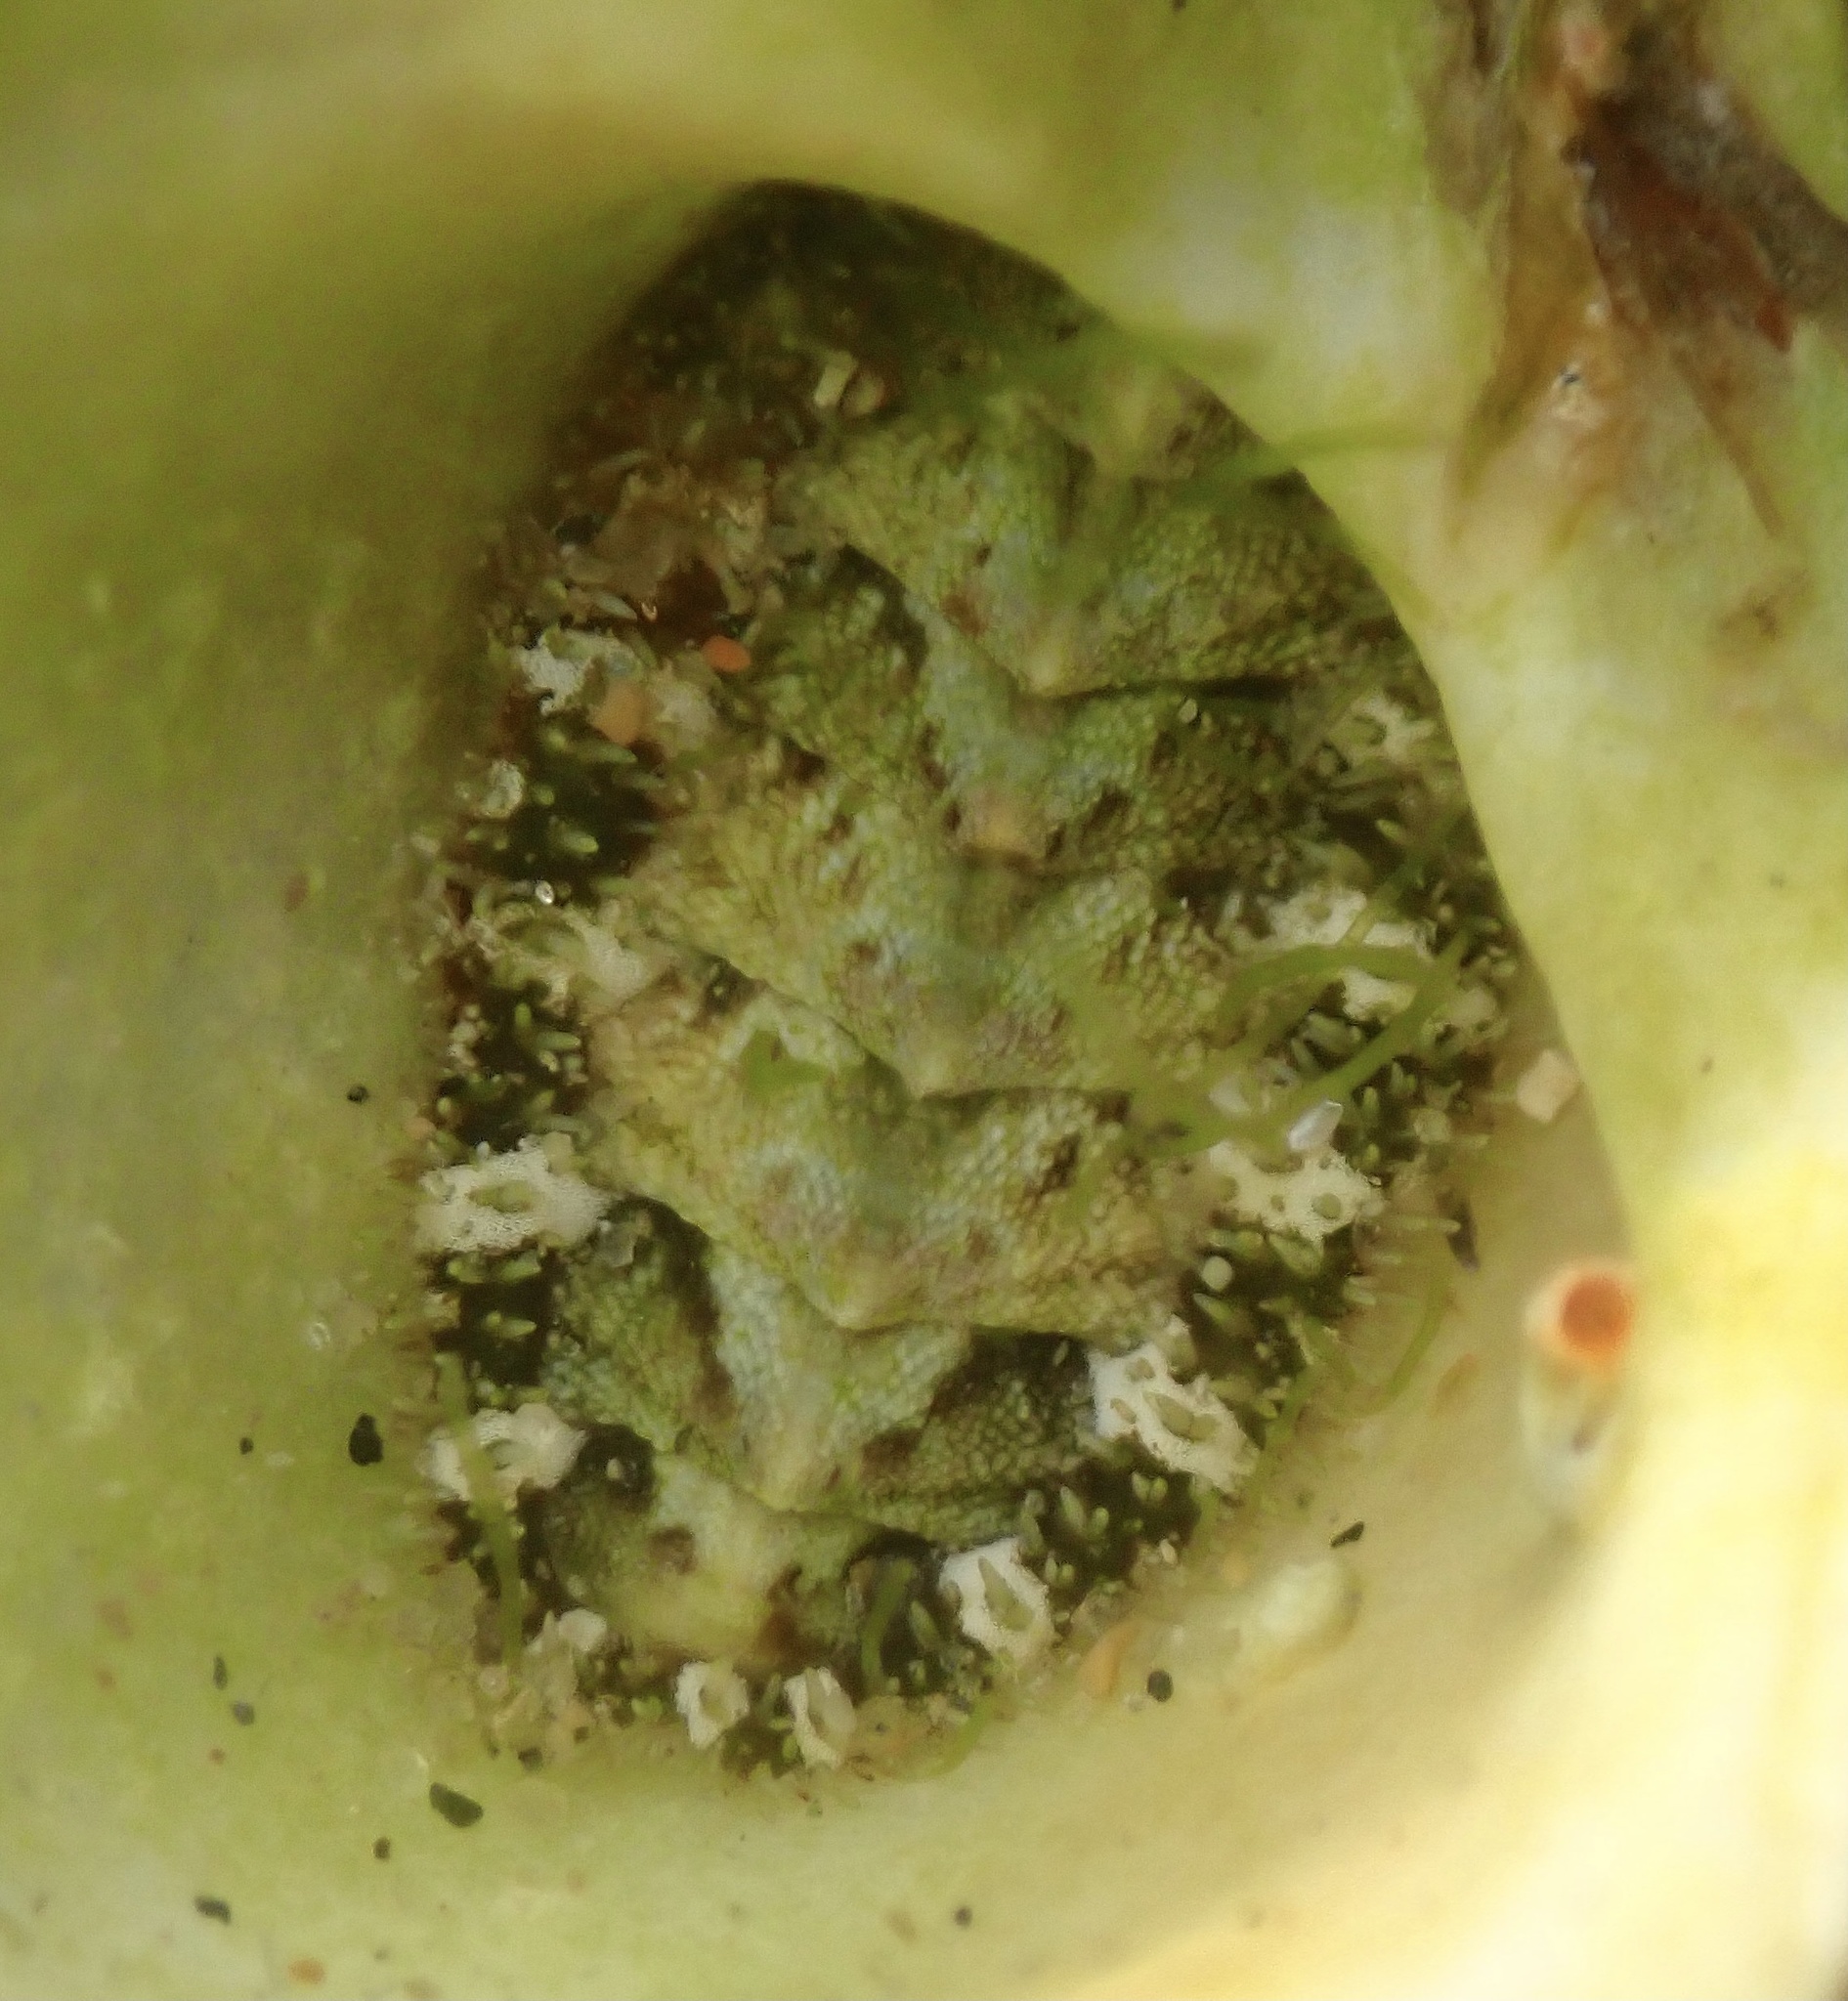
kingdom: Animalia
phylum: Mollusca
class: Polyplacophora
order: Chitonida
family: Tonicellidae
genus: Nuttallina
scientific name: Nuttallina californica
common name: California nuttall chiton
